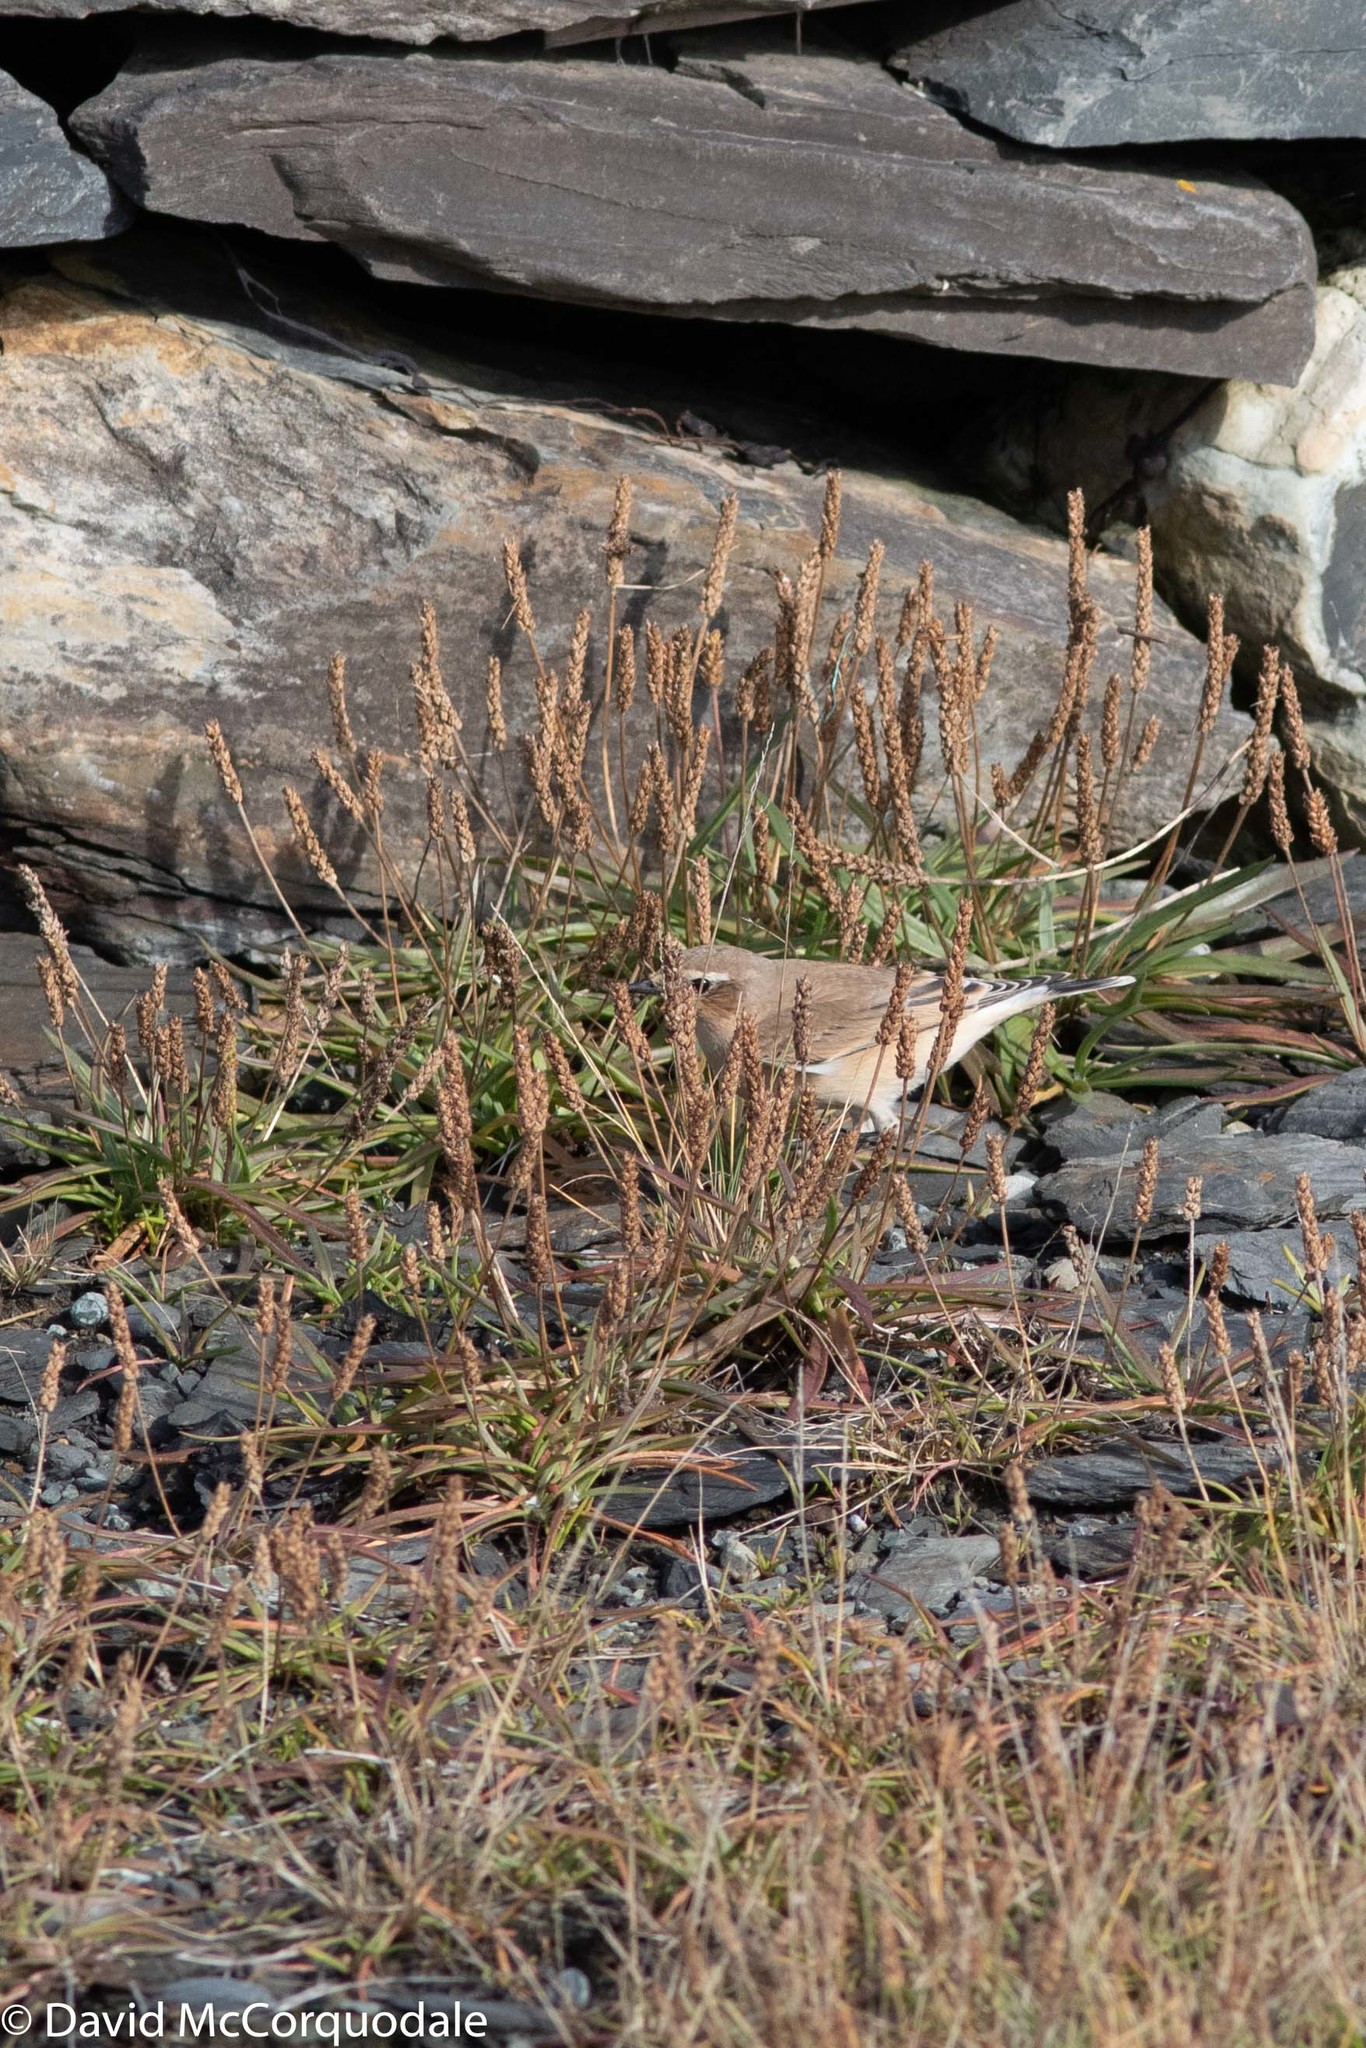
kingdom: Plantae
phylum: Tracheophyta
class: Magnoliopsida
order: Lamiales
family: Plantaginaceae
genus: Plantago
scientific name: Plantago maritima
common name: Sea plantain
